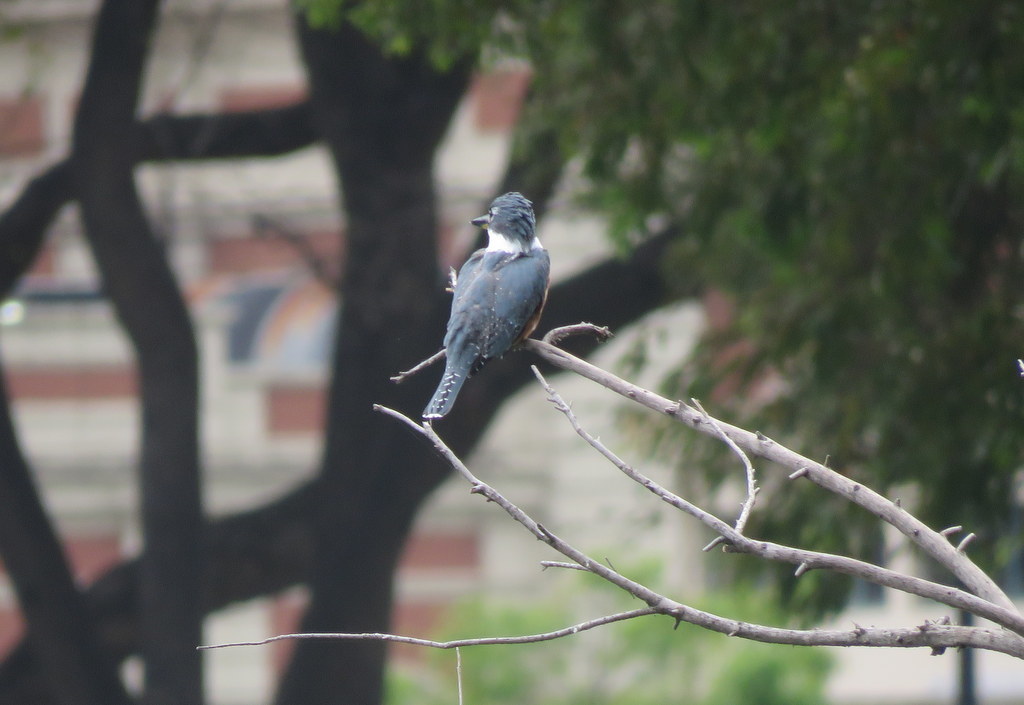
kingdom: Animalia
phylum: Chordata
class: Aves
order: Coraciiformes
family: Alcedinidae
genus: Megaceryle
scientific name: Megaceryle torquata
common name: Ringed kingfisher
